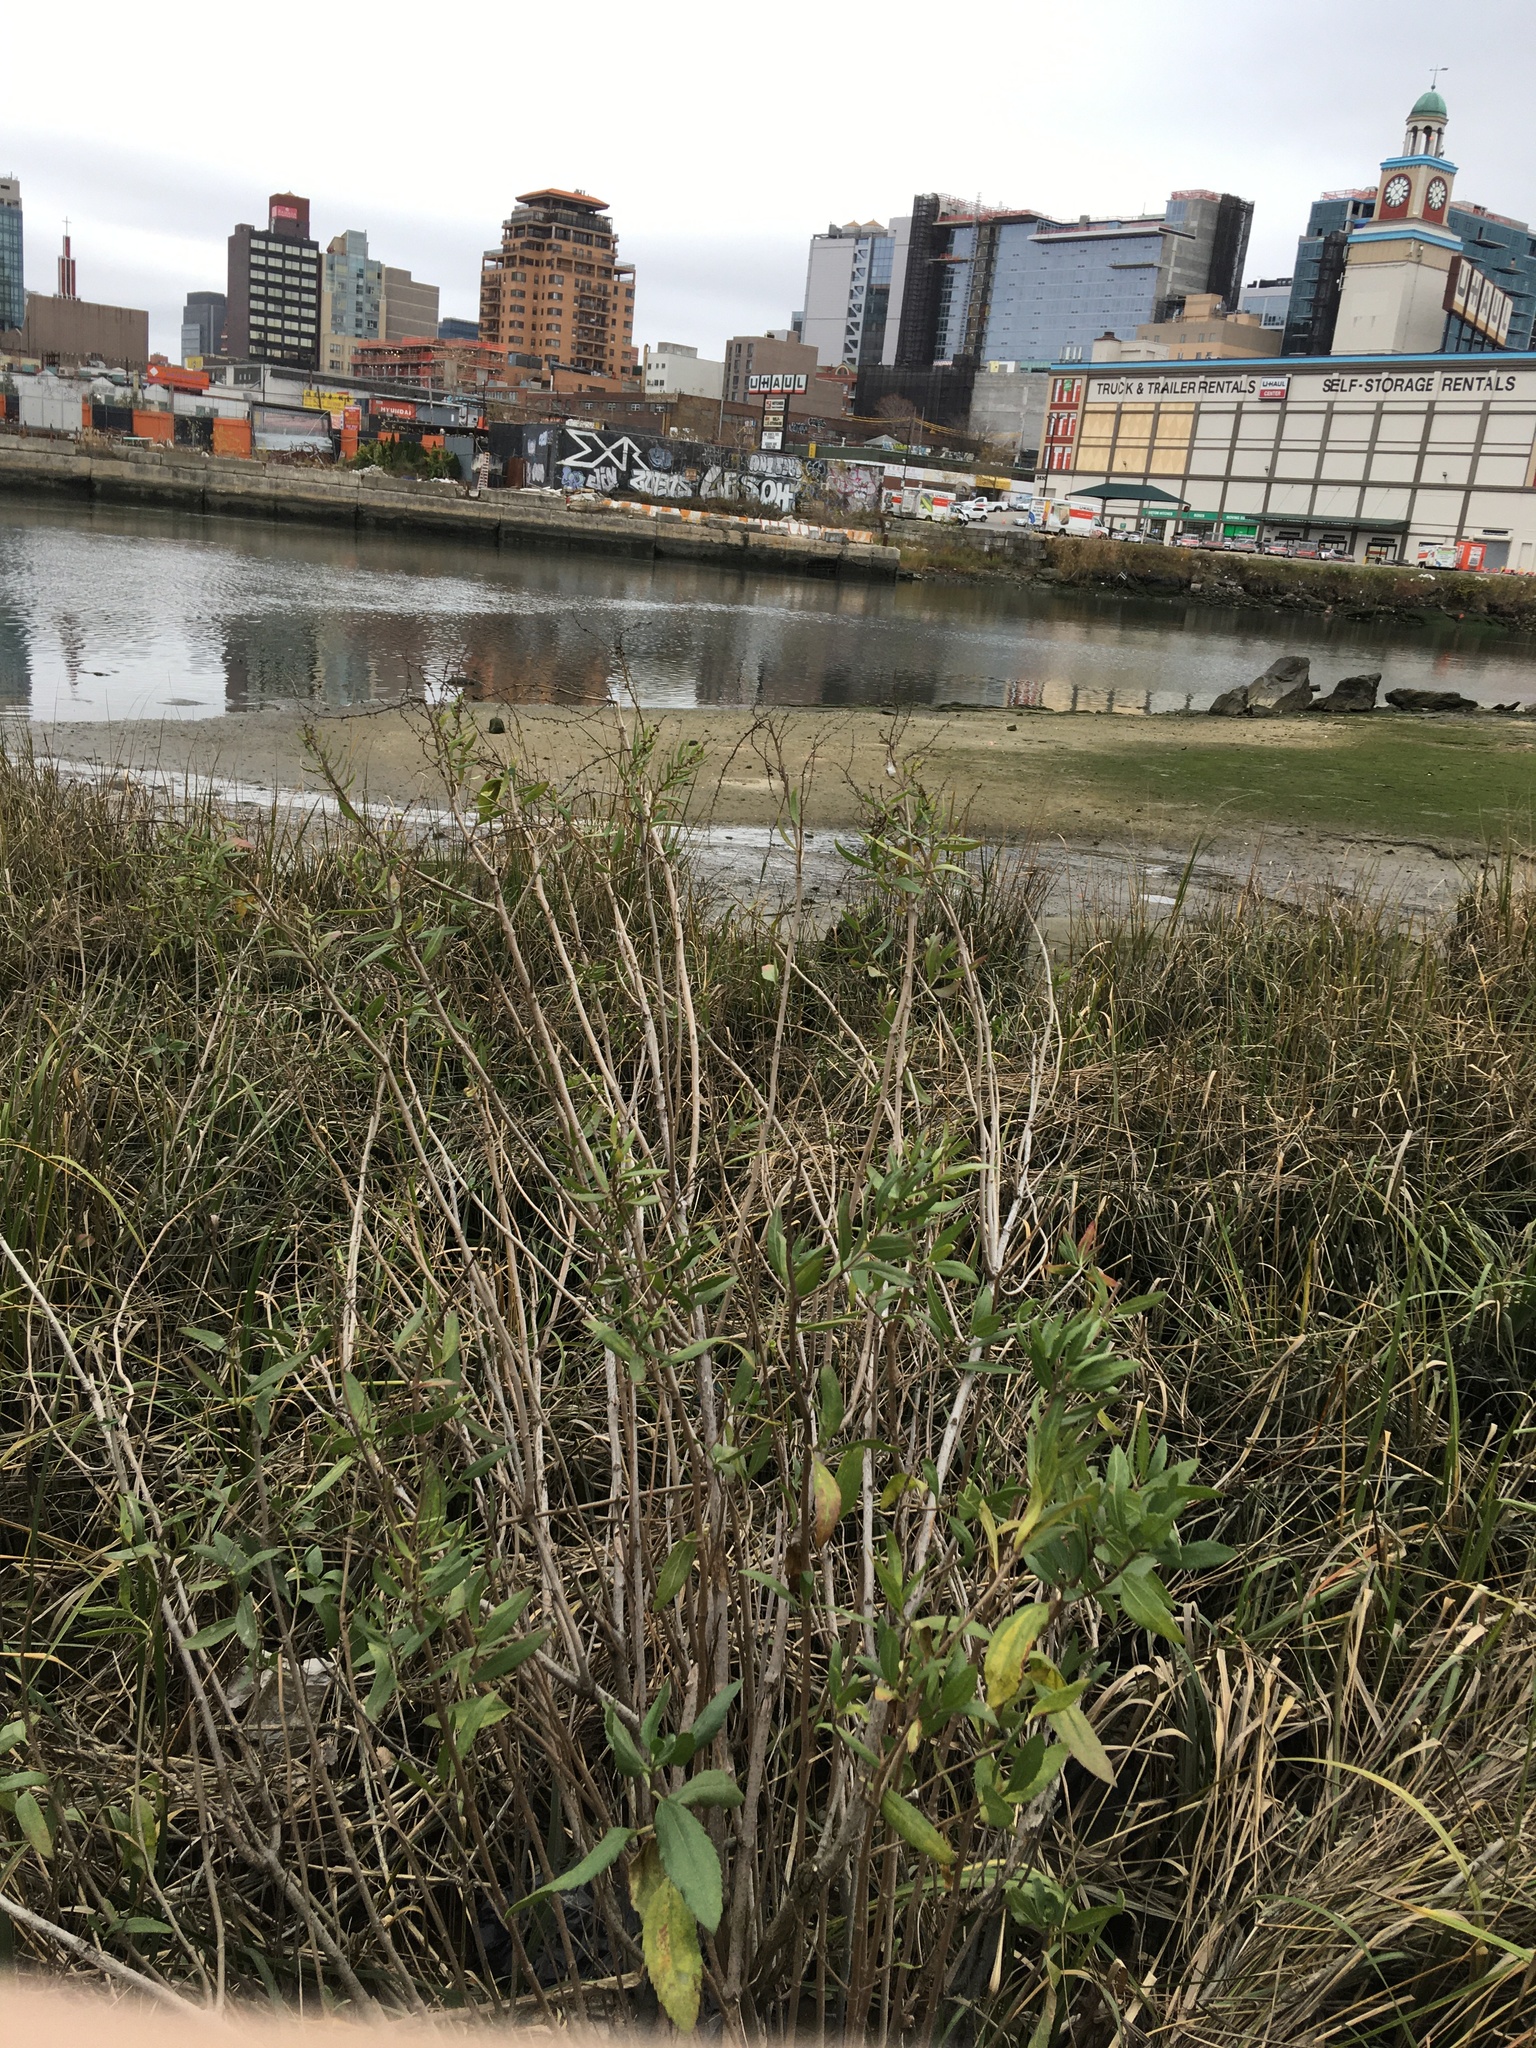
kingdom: Plantae
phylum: Tracheophyta
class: Magnoliopsida
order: Asterales
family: Asteraceae
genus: Iva
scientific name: Iva frutescens
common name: Big-leaved marsh-elder
